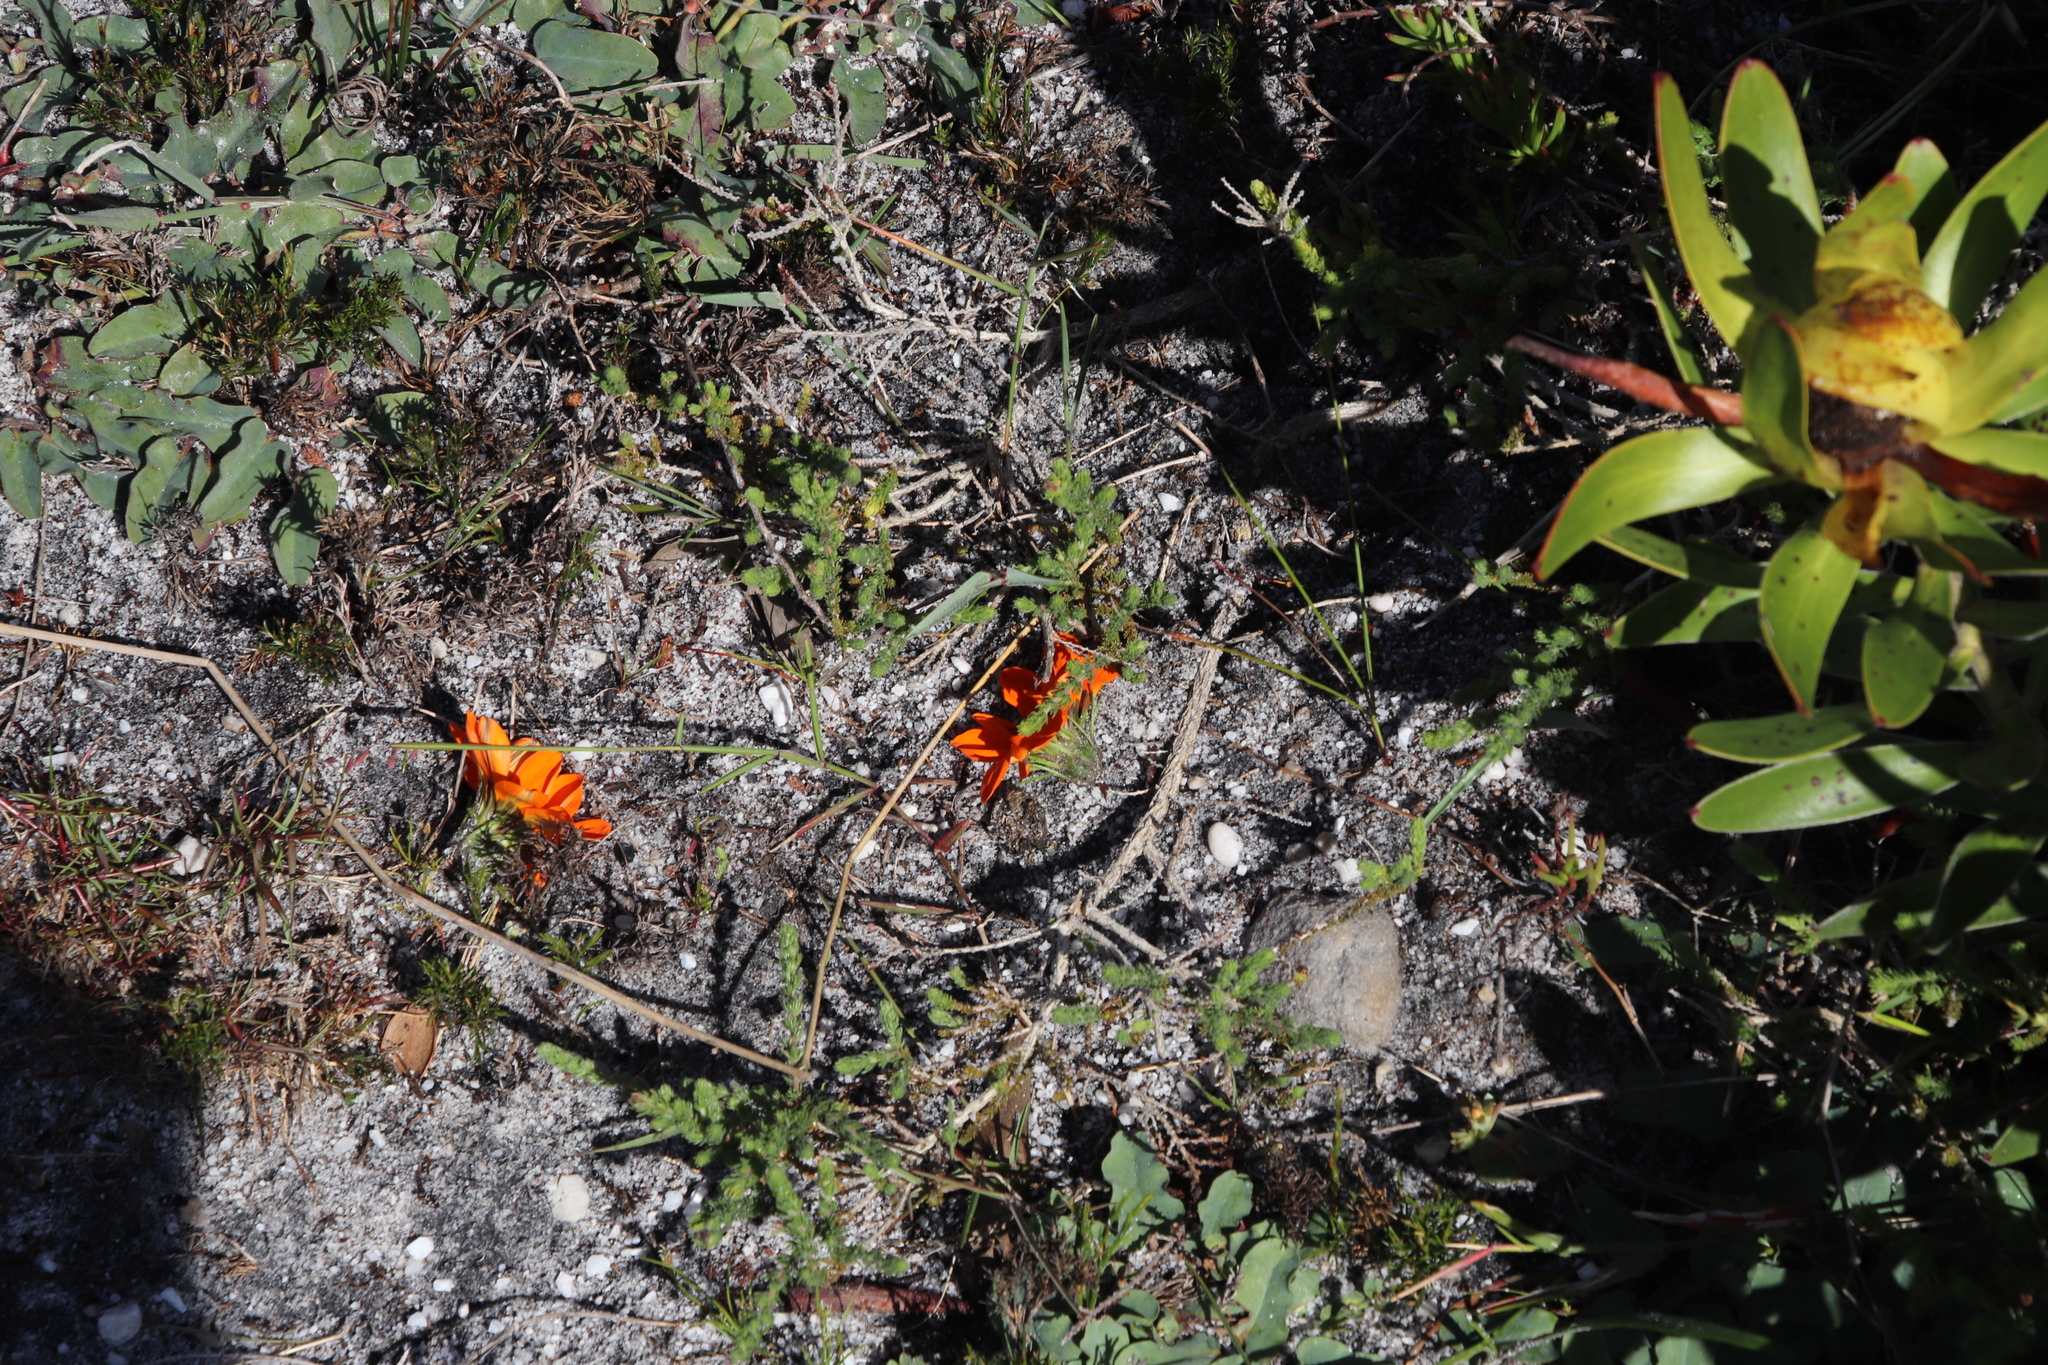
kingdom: Plantae
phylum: Tracheophyta
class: Magnoliopsida
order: Asterales
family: Asteraceae
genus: Gazania
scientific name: Gazania pectinata
